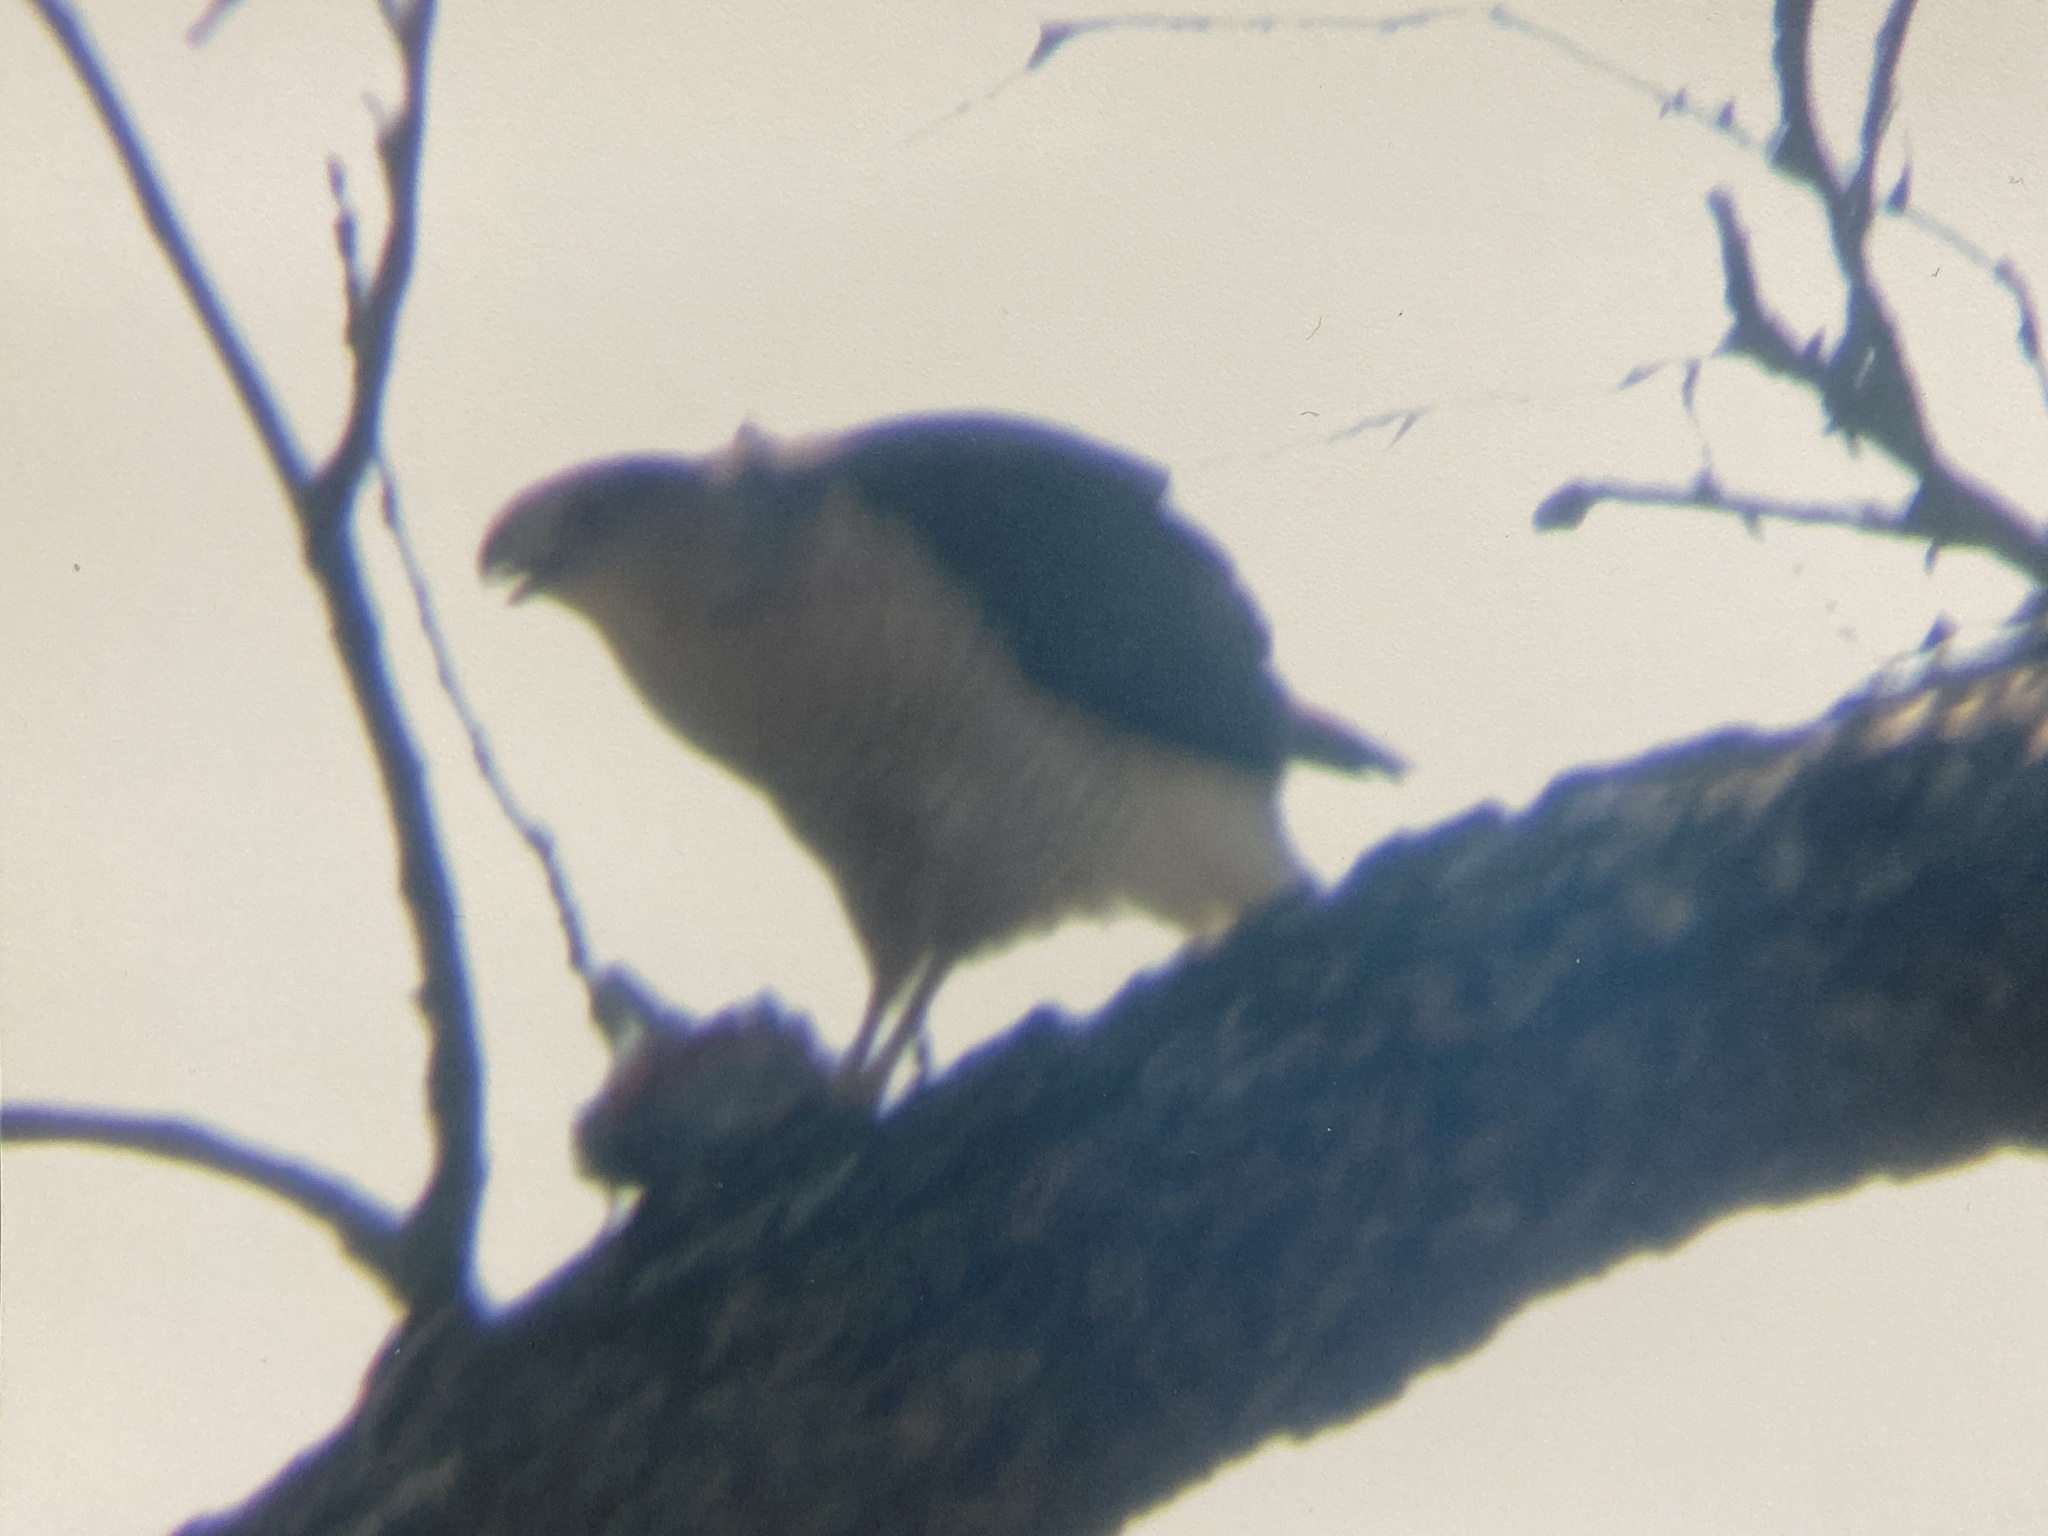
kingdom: Animalia
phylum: Chordata
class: Aves
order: Accipitriformes
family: Accipitridae
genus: Accipiter
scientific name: Accipiter cooperii
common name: Cooper's hawk
